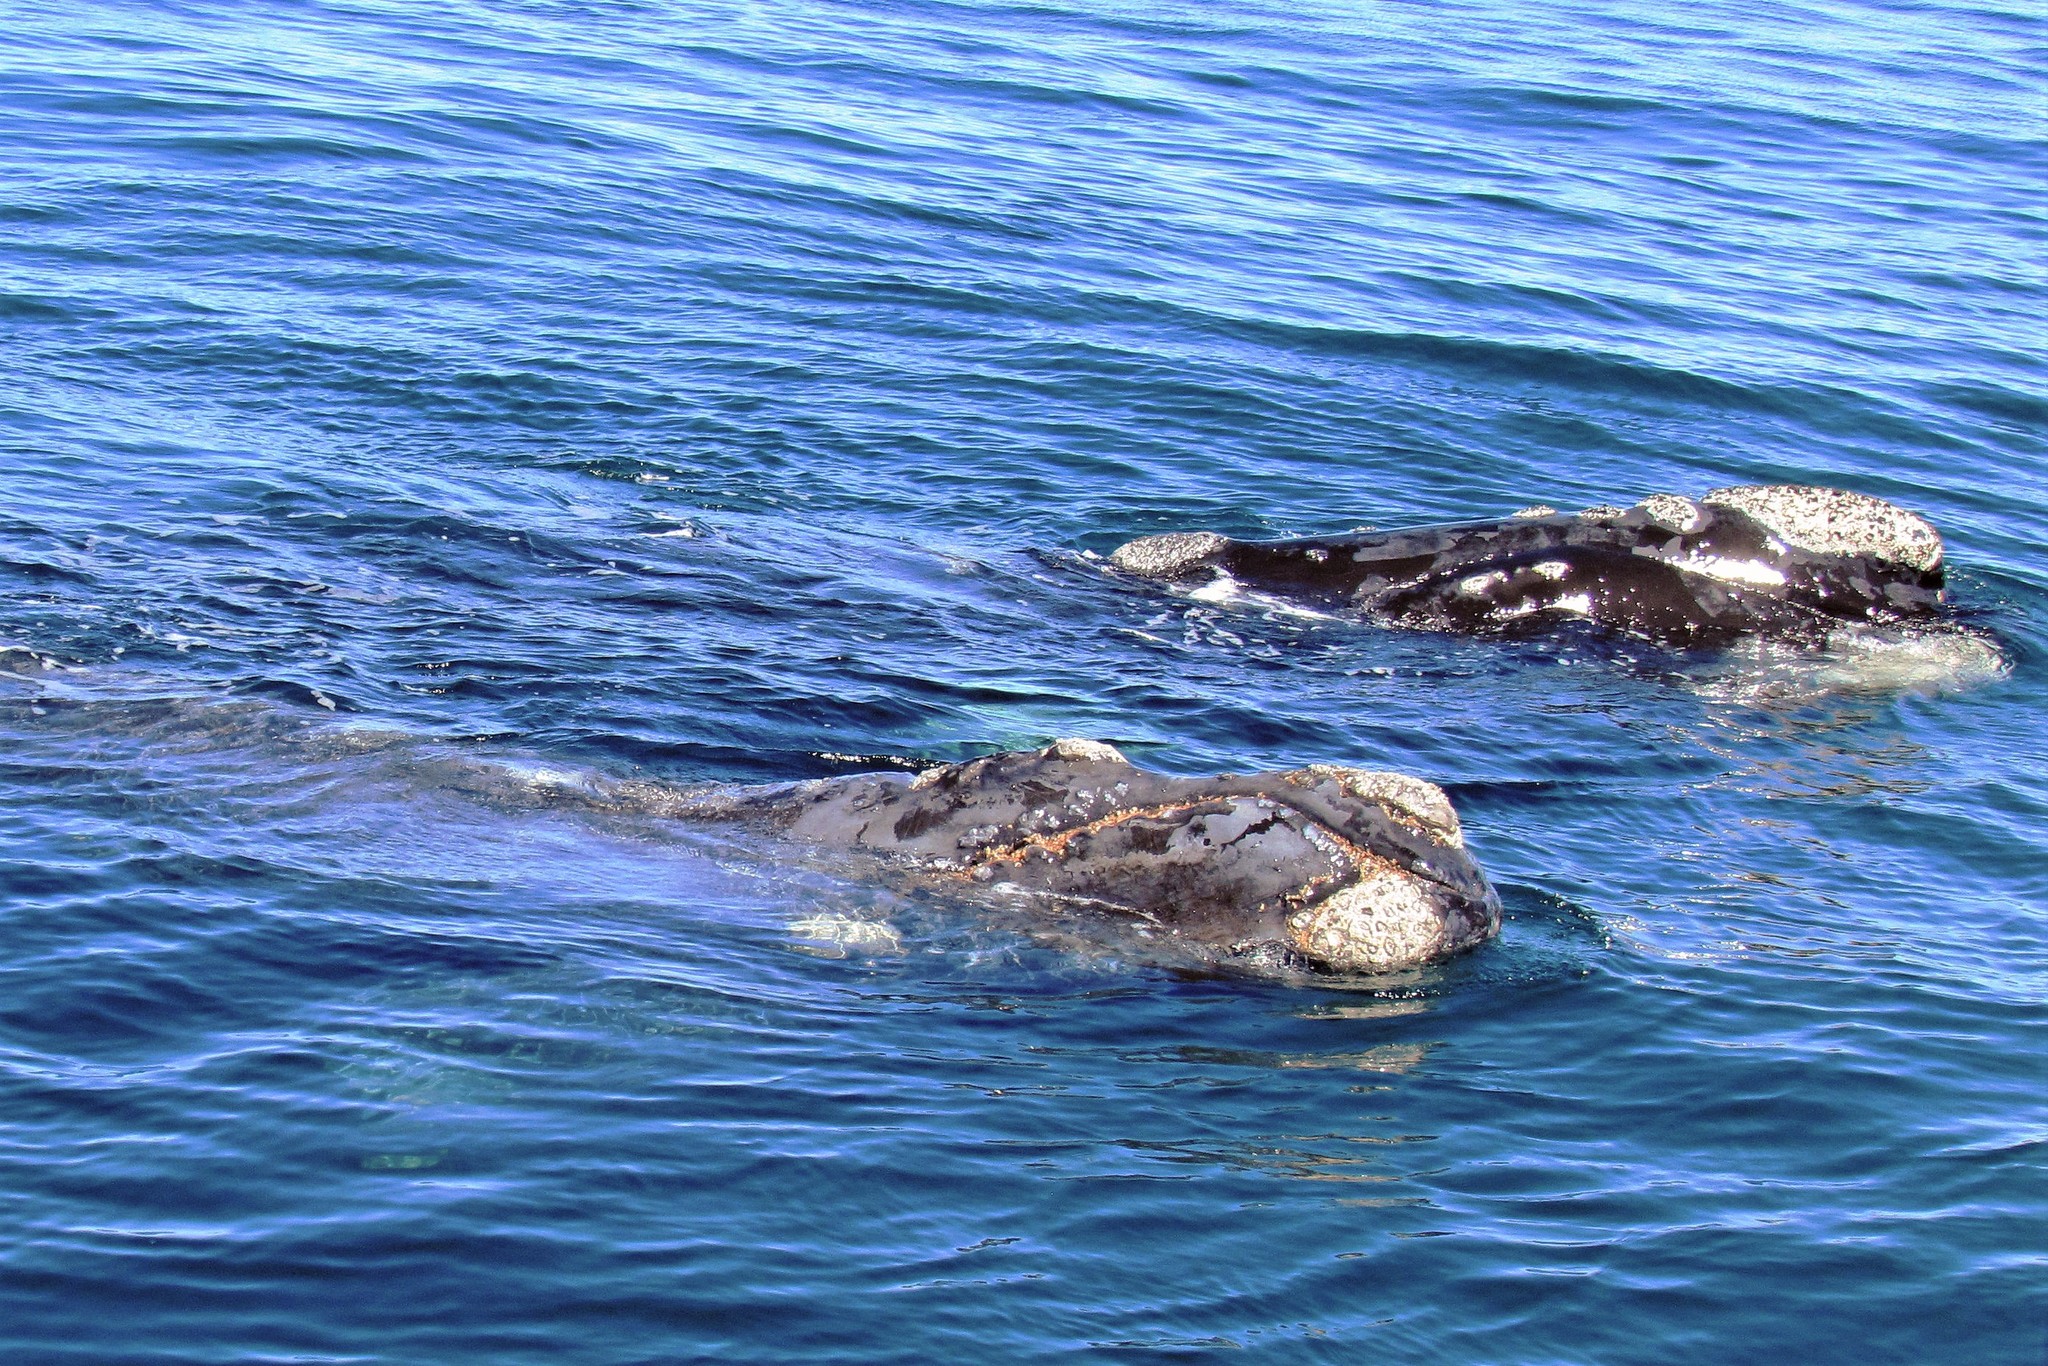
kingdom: Animalia
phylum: Chordata
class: Mammalia
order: Cetacea
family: Balaenidae
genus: Eubalaena
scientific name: Eubalaena australis
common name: Southern right whale
